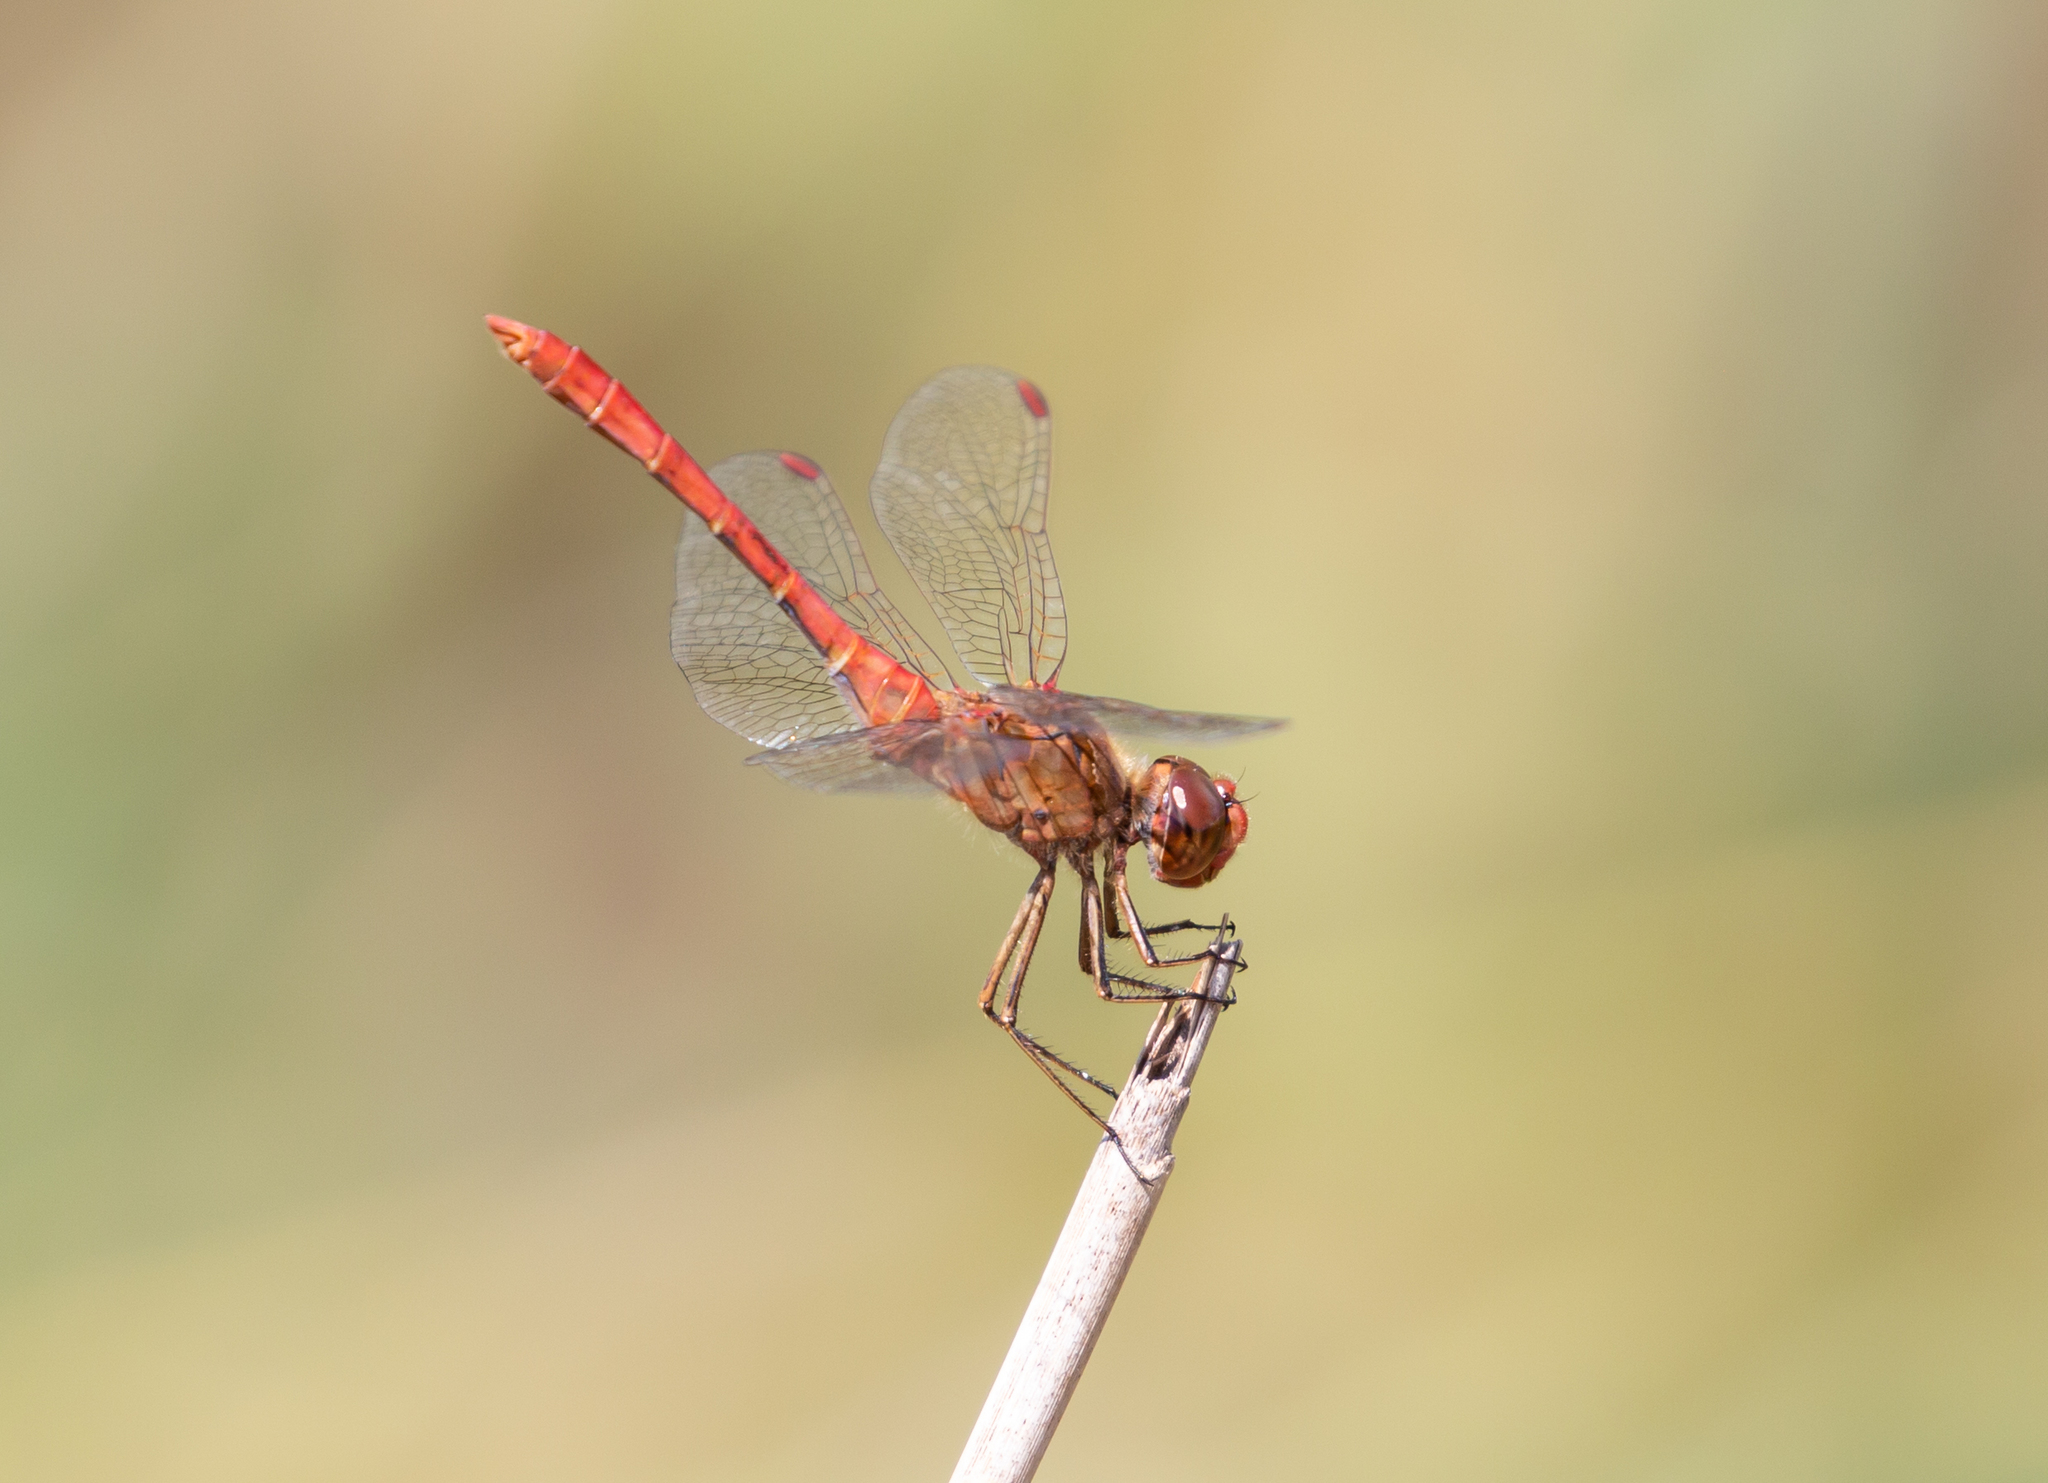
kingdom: Animalia
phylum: Arthropoda
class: Insecta
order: Odonata
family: Libellulidae
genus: Sympetrum
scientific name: Sympetrum meridionale
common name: Southern darter
